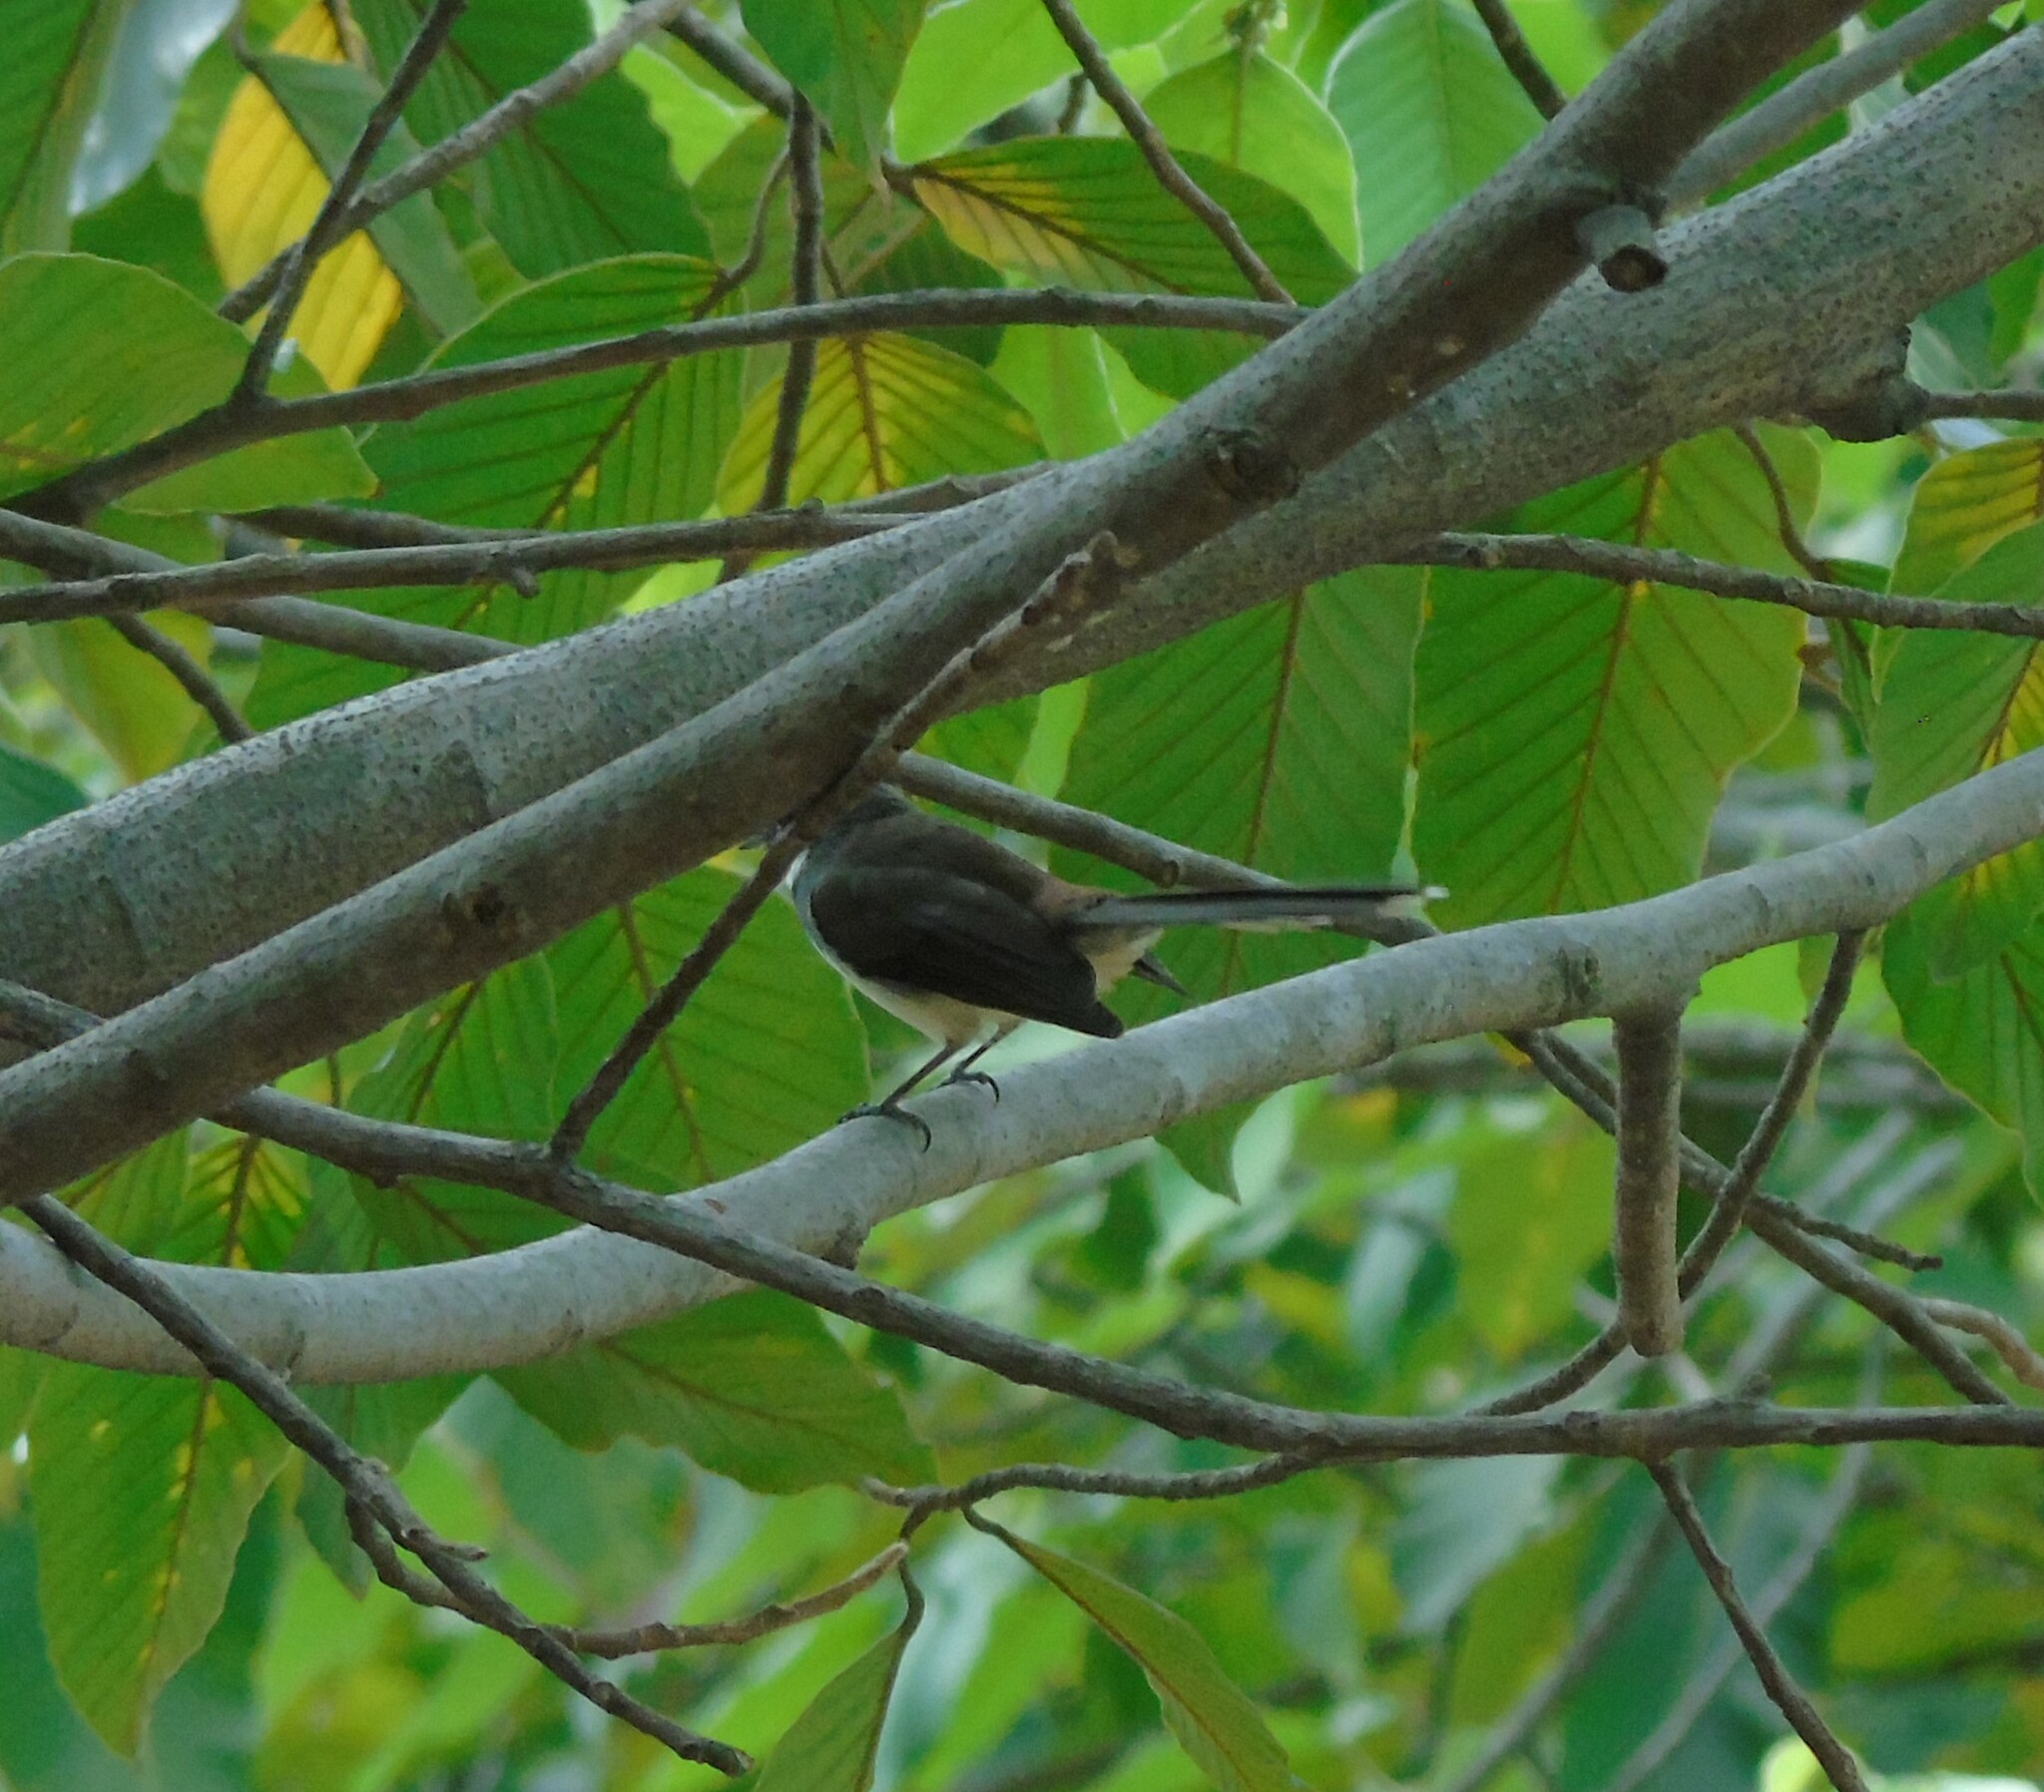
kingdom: Animalia
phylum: Chordata
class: Aves
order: Passeriformes
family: Rhipiduridae
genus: Rhipidura
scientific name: Rhipidura javanica
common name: Pied fantail
